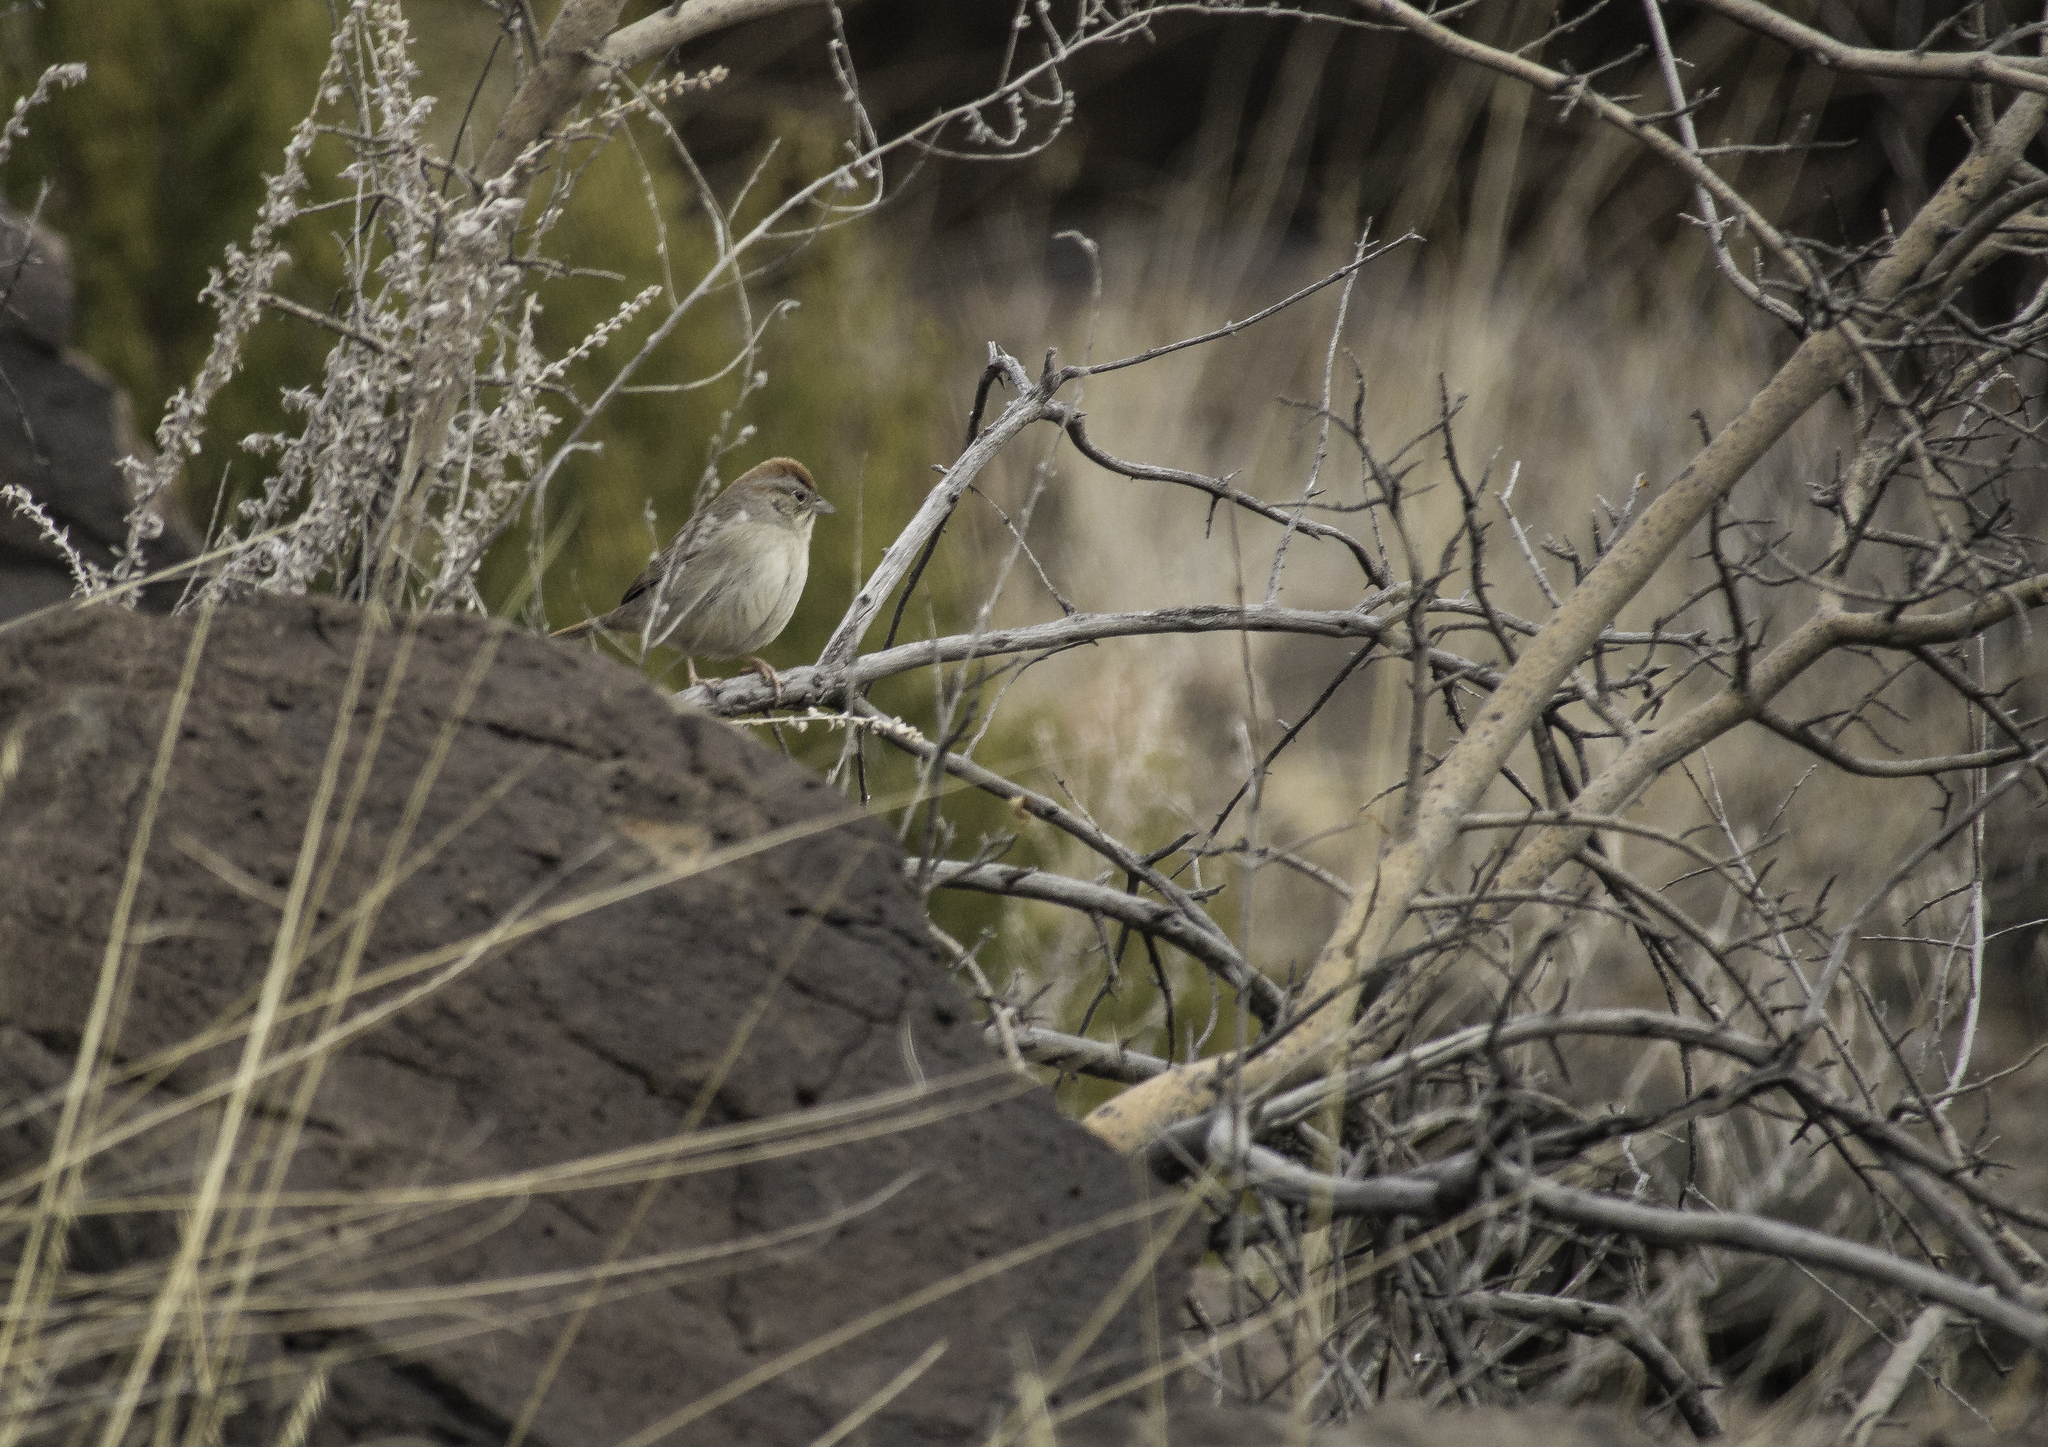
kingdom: Animalia
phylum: Chordata
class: Aves
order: Passeriformes
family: Passerellidae
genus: Aimophila
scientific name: Aimophila ruficeps
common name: Rufous-crowned sparrow
